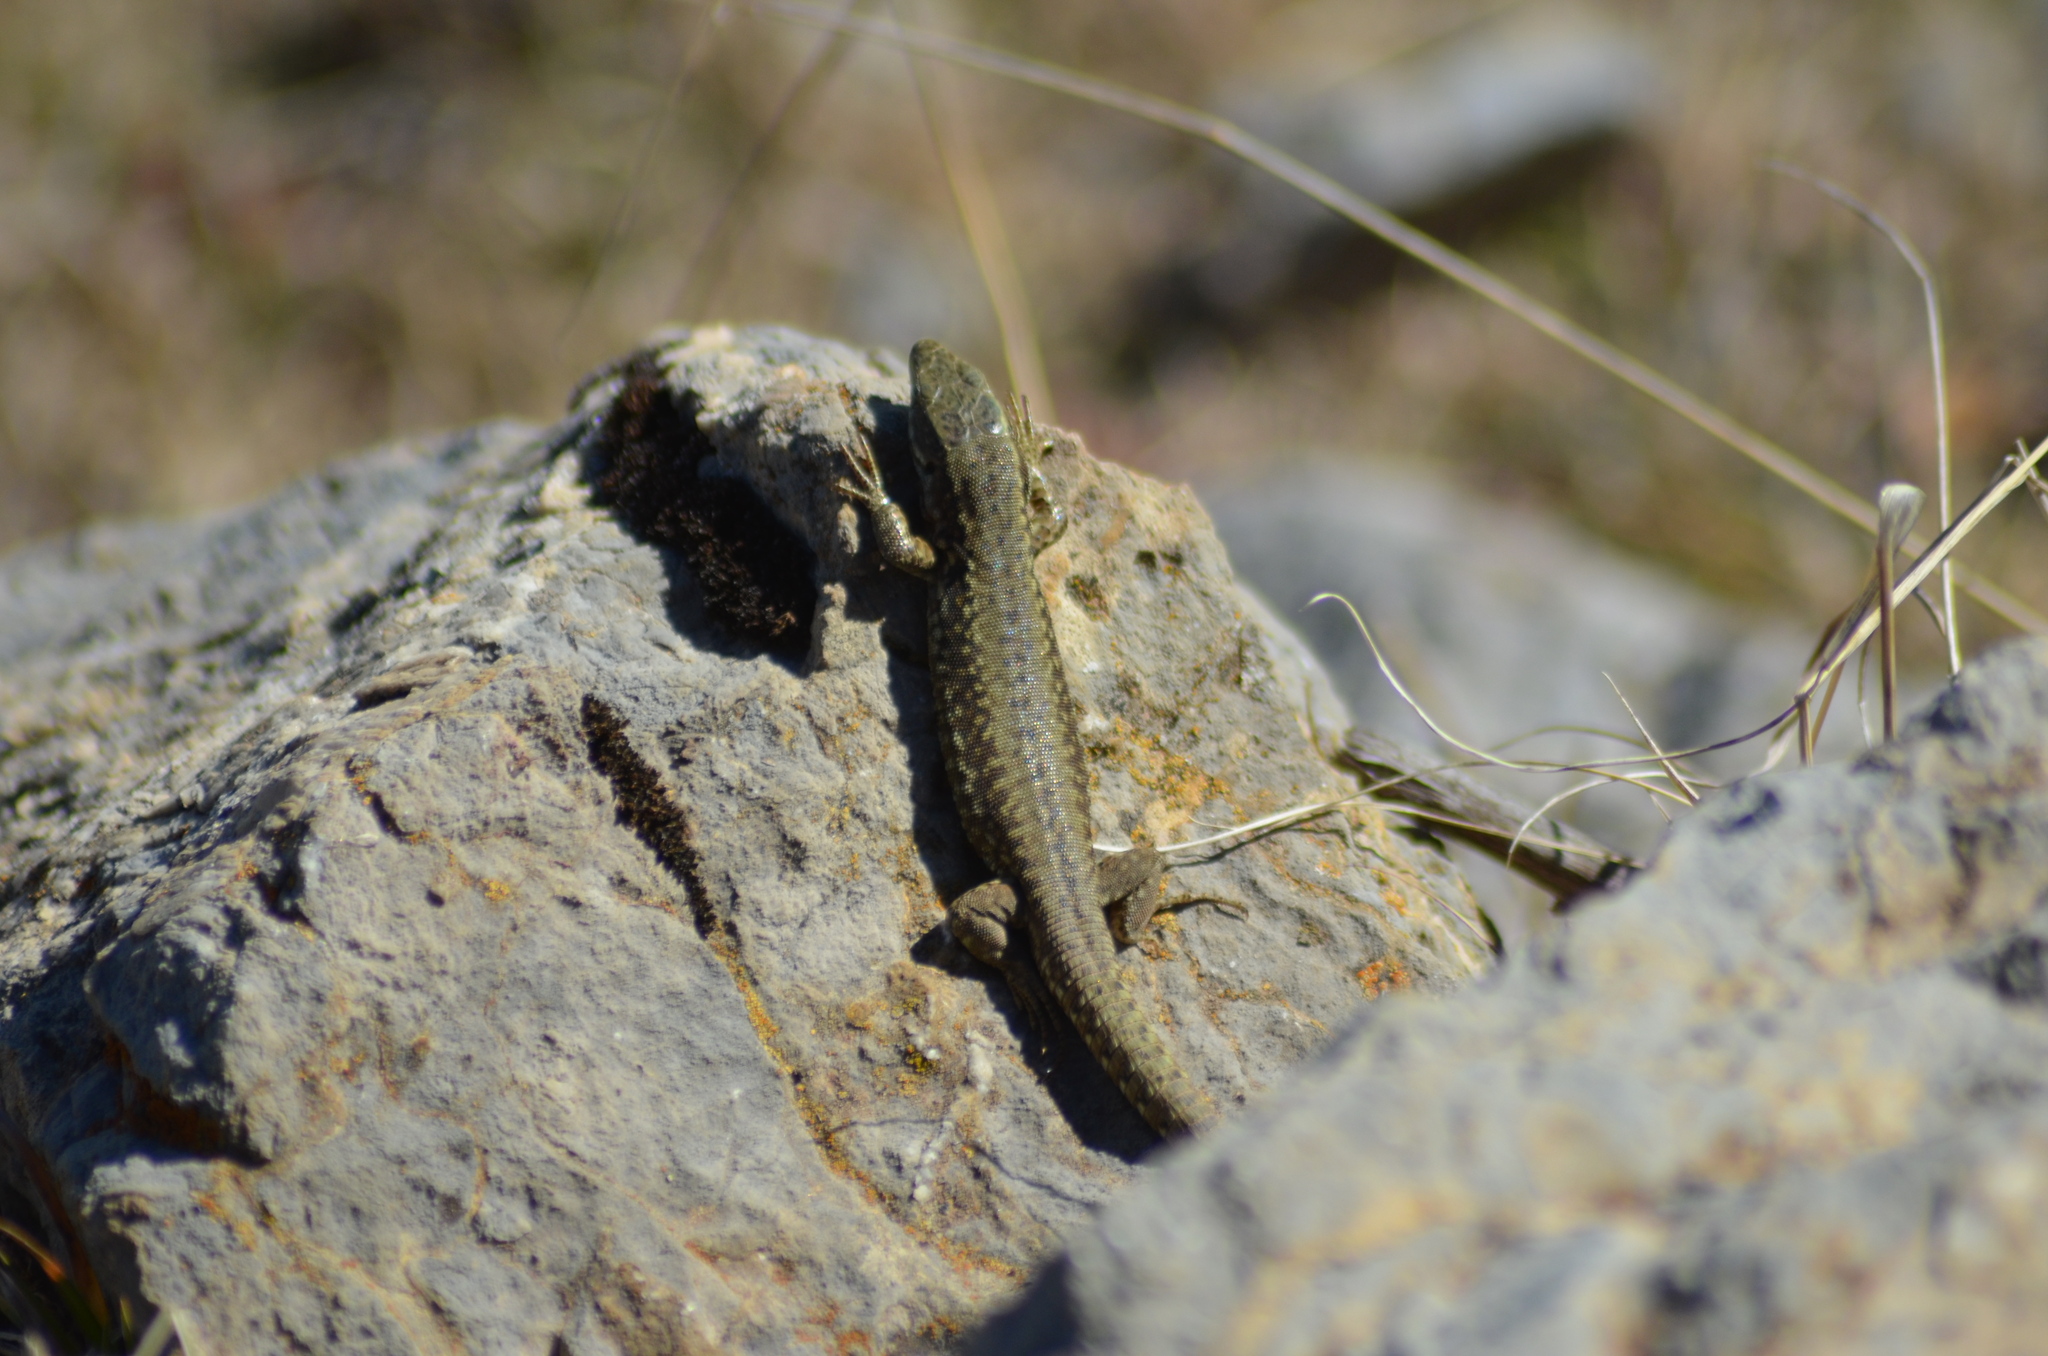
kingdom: Animalia
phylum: Chordata
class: Squamata
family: Lacertidae
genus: Podarcis
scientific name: Podarcis muralis
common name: Common wall lizard
